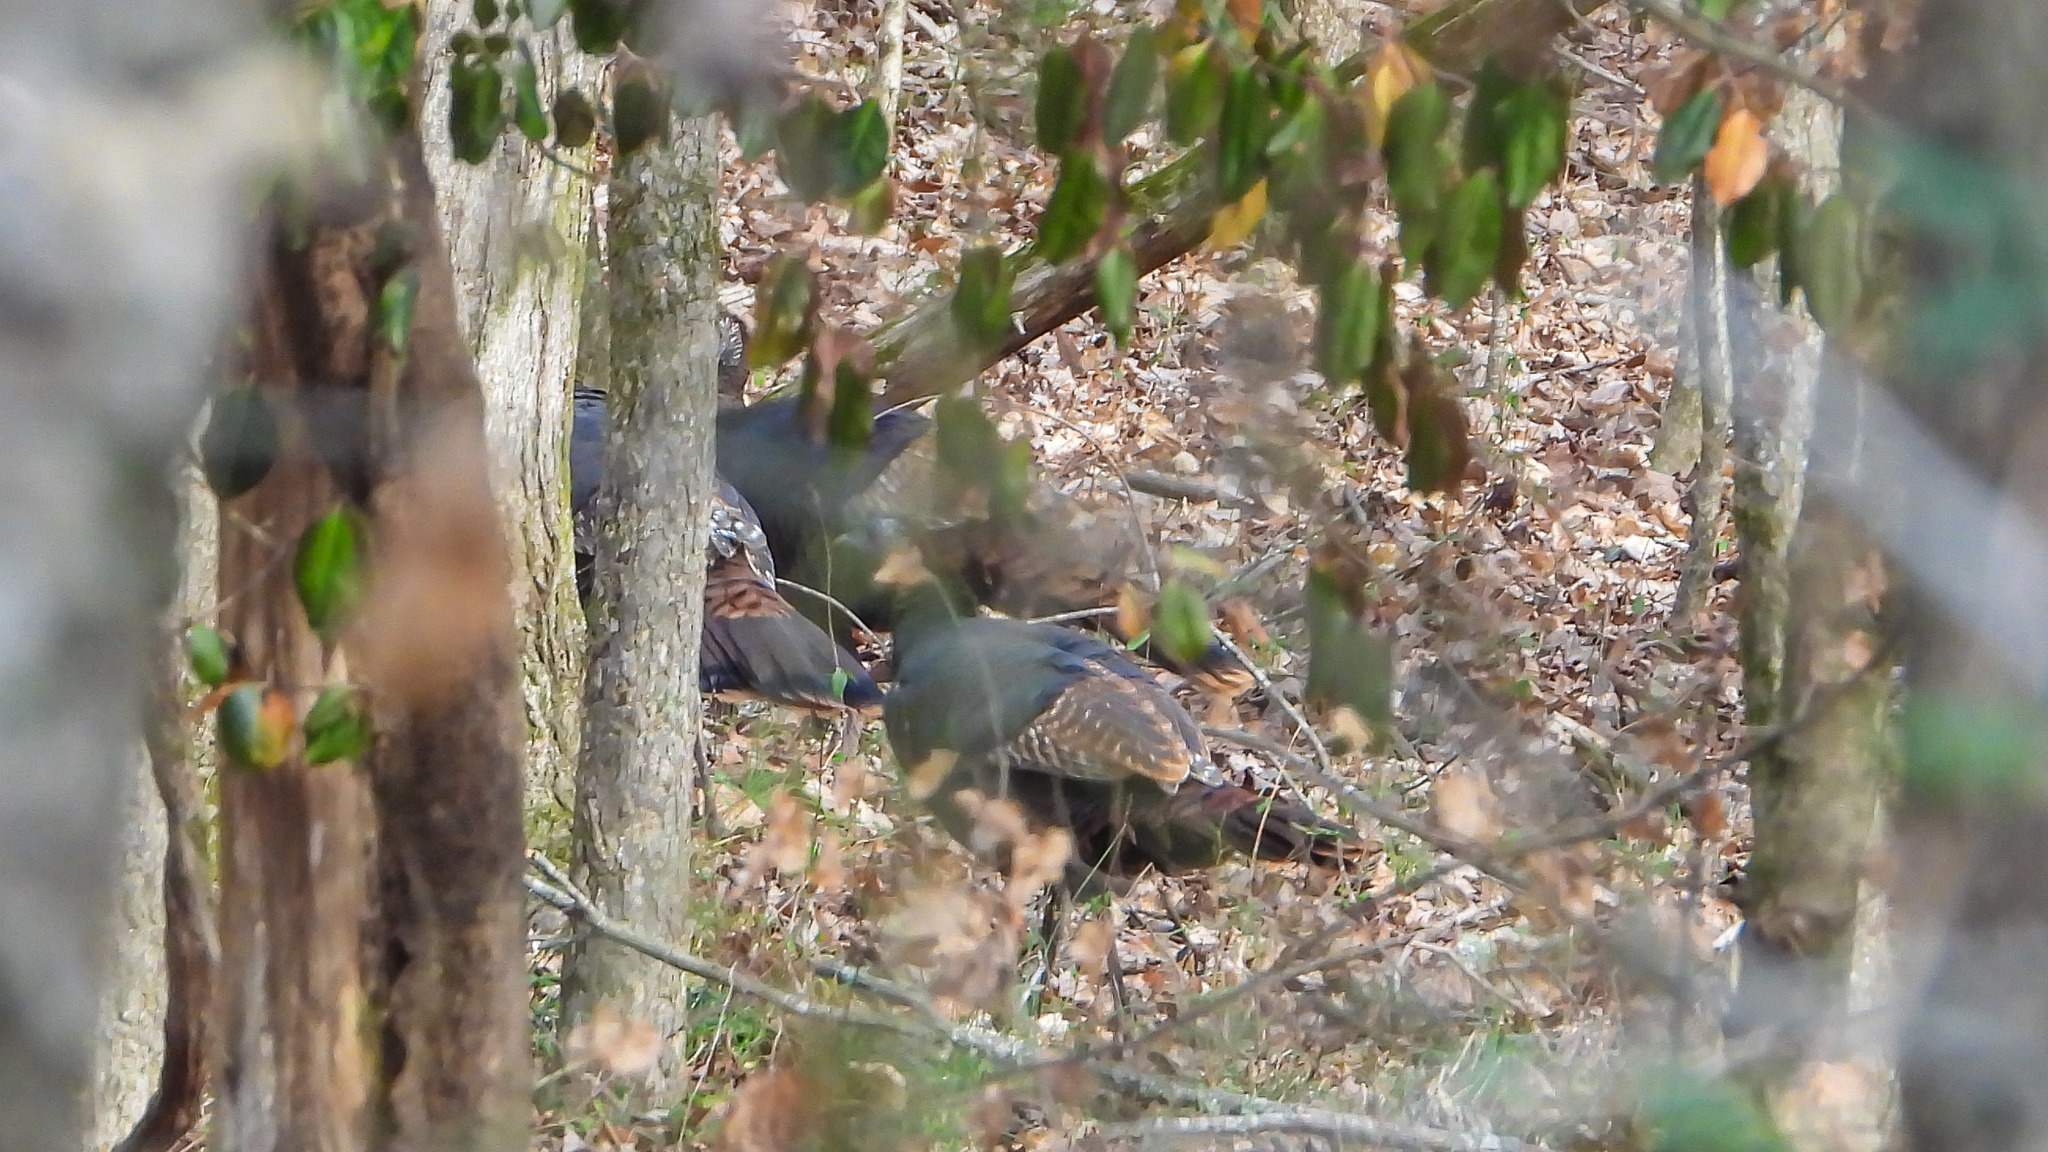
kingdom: Animalia
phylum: Chordata
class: Aves
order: Galliformes
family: Phasianidae
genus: Meleagris
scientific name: Meleagris gallopavo
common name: Wild turkey
